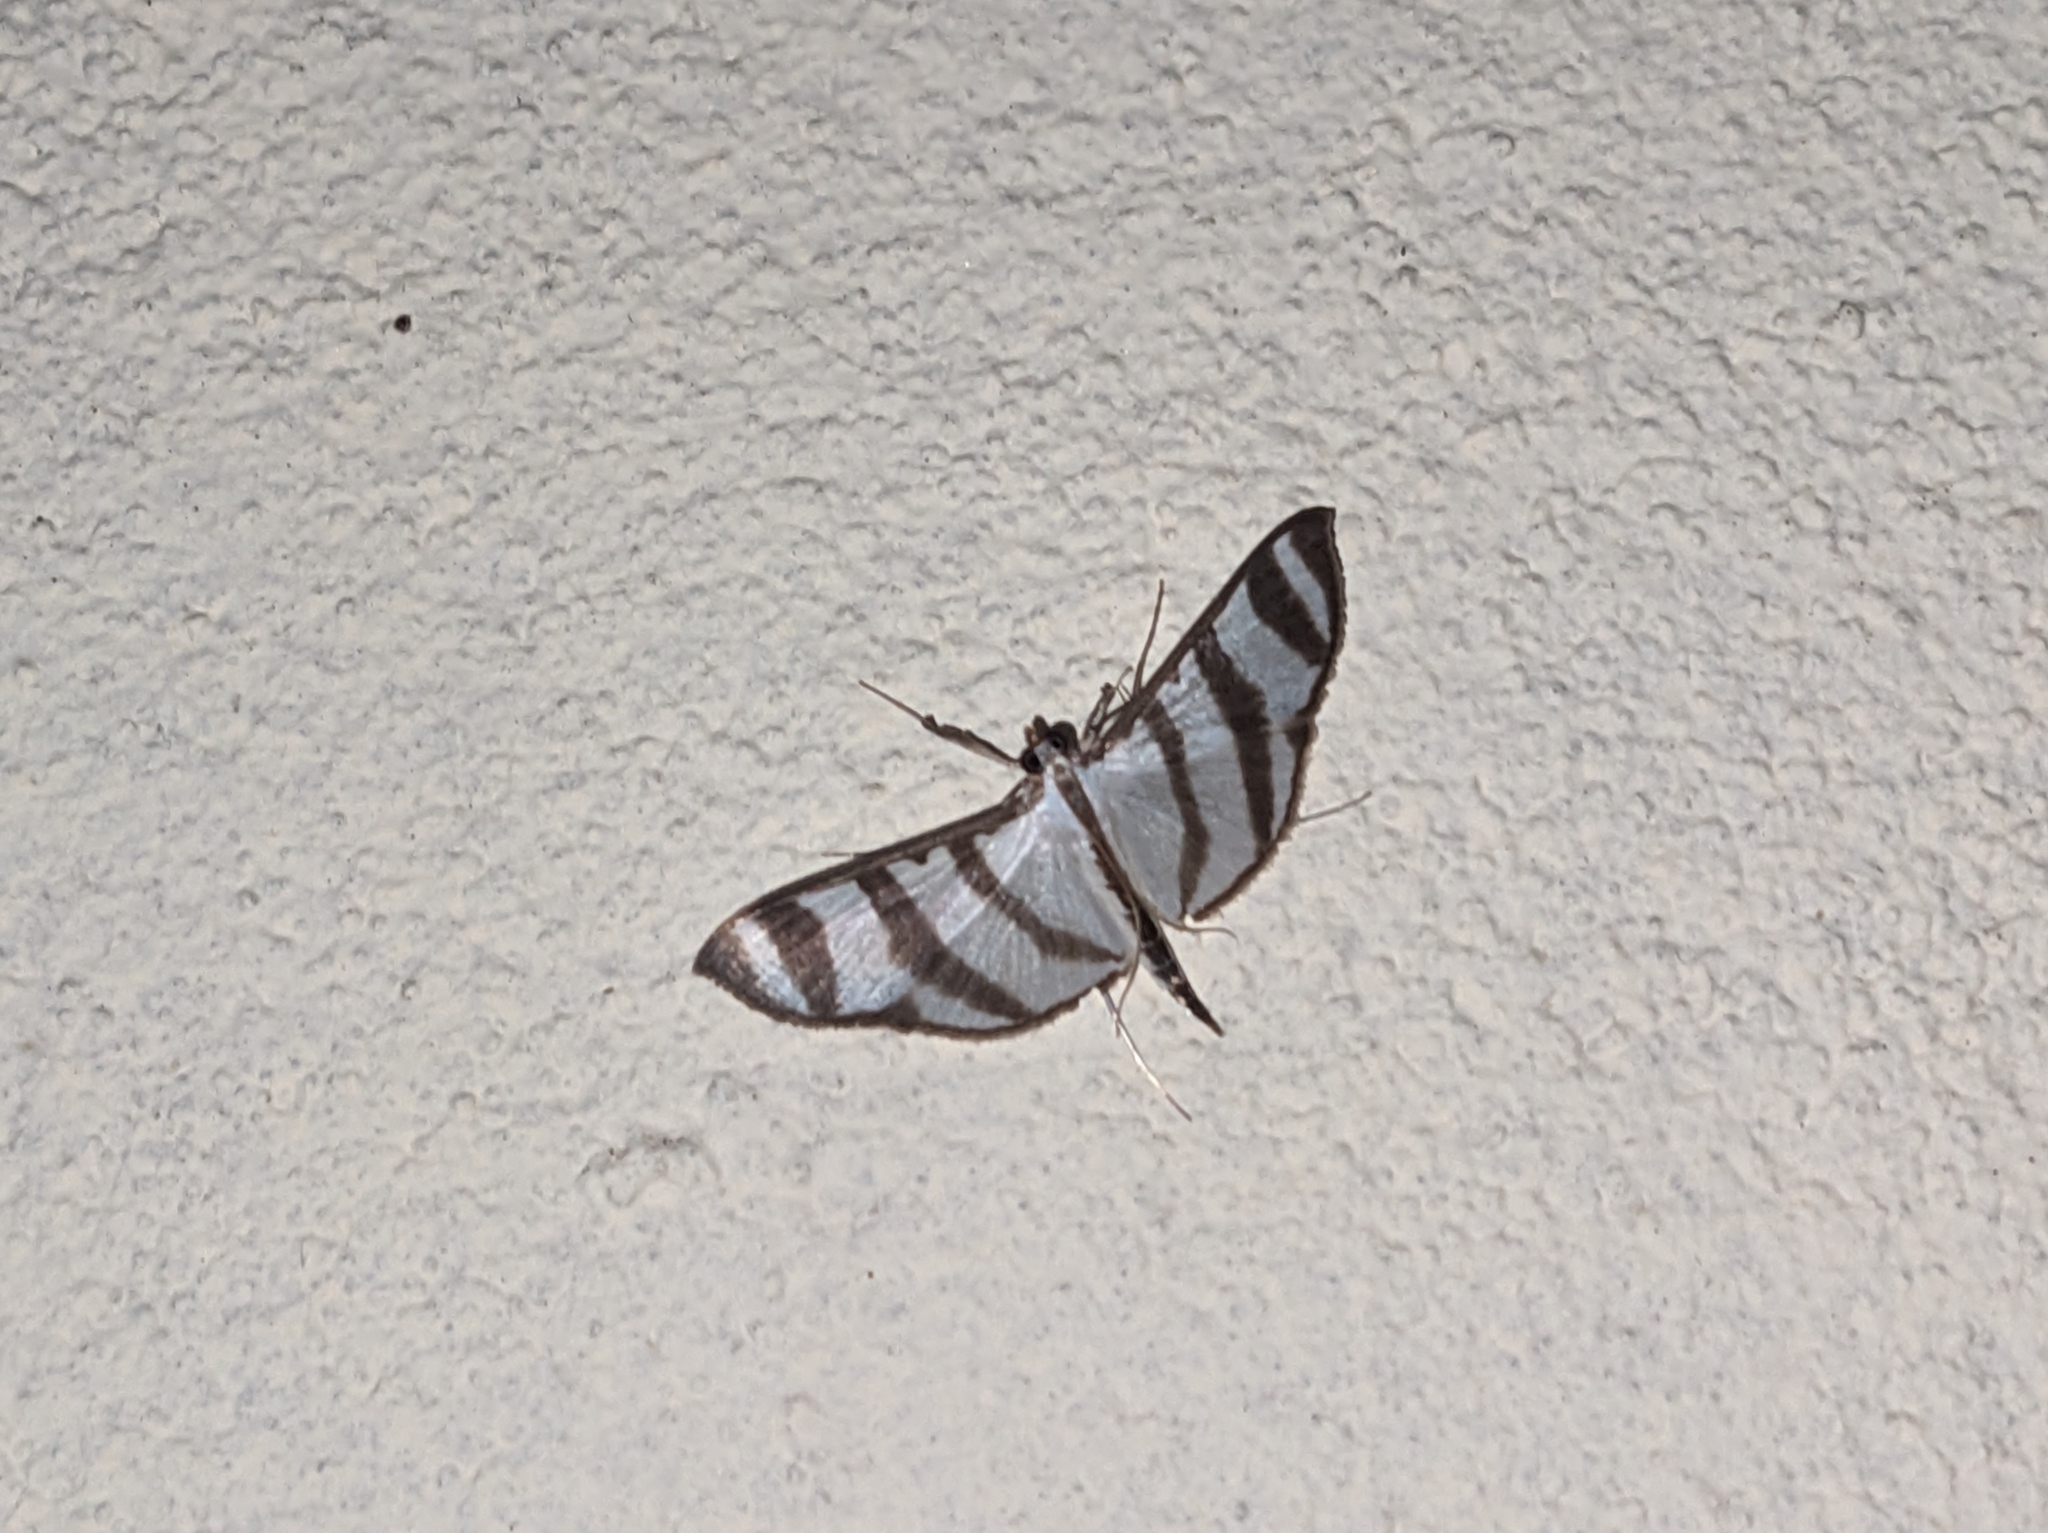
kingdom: Animalia
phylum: Arthropoda
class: Insecta
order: Lepidoptera
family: Crambidae
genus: Zebronia
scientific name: Zebronia phenice
